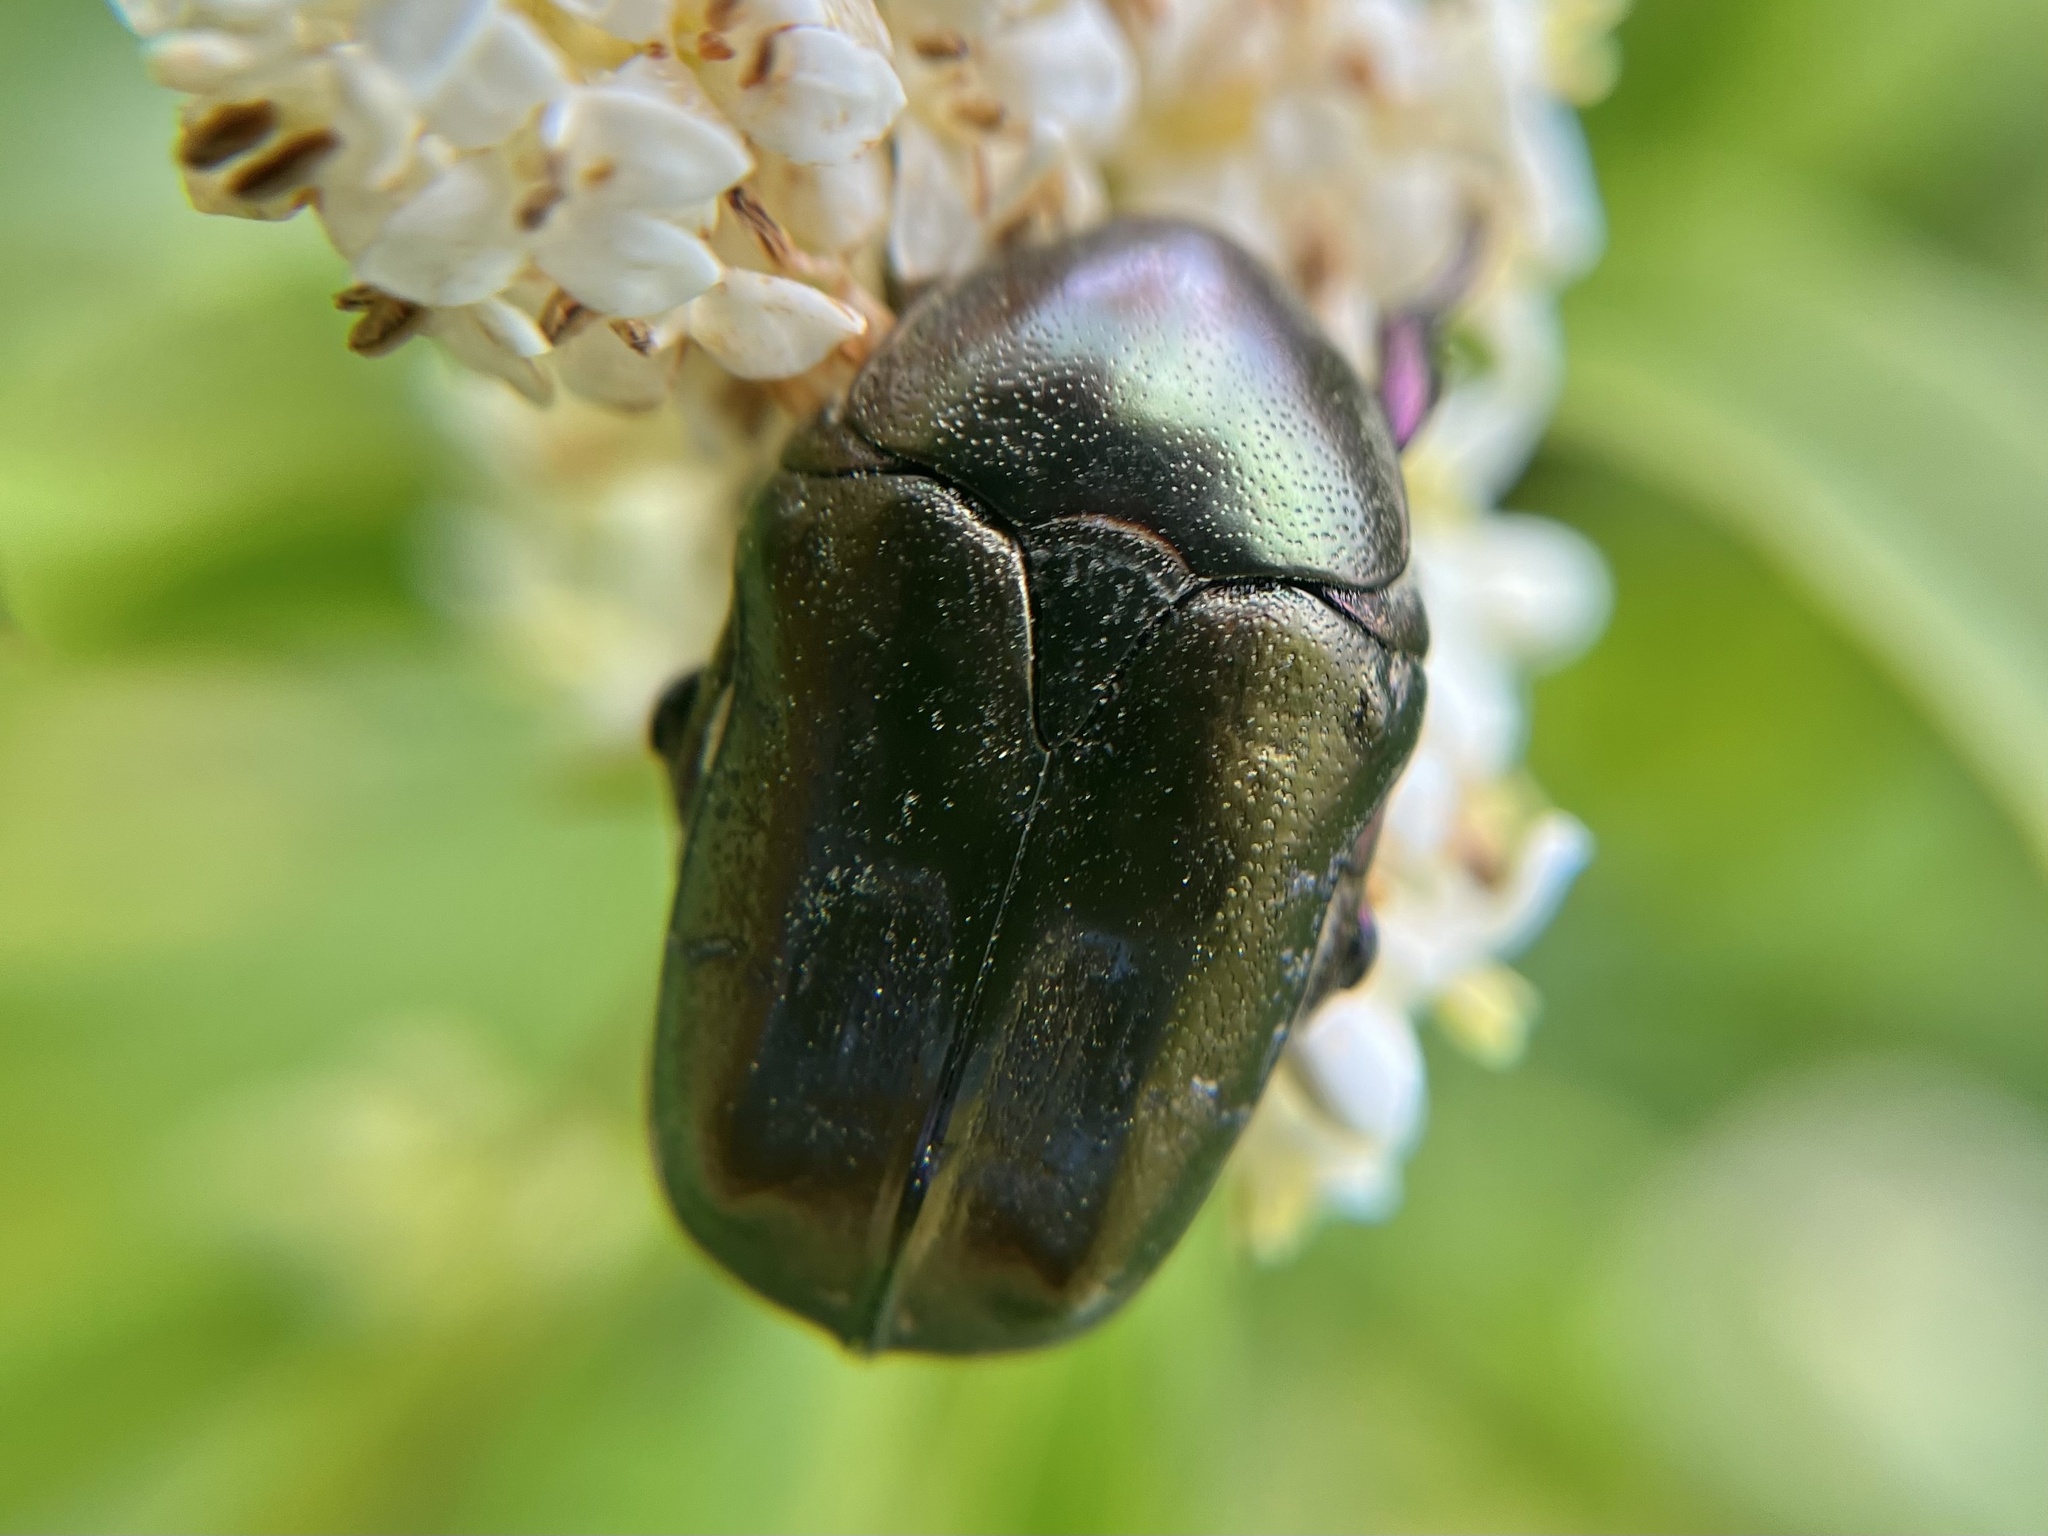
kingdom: Animalia
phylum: Arthropoda
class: Insecta
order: Coleoptera
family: Scarabaeidae
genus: Protaetia
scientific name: Protaetia cuprea
